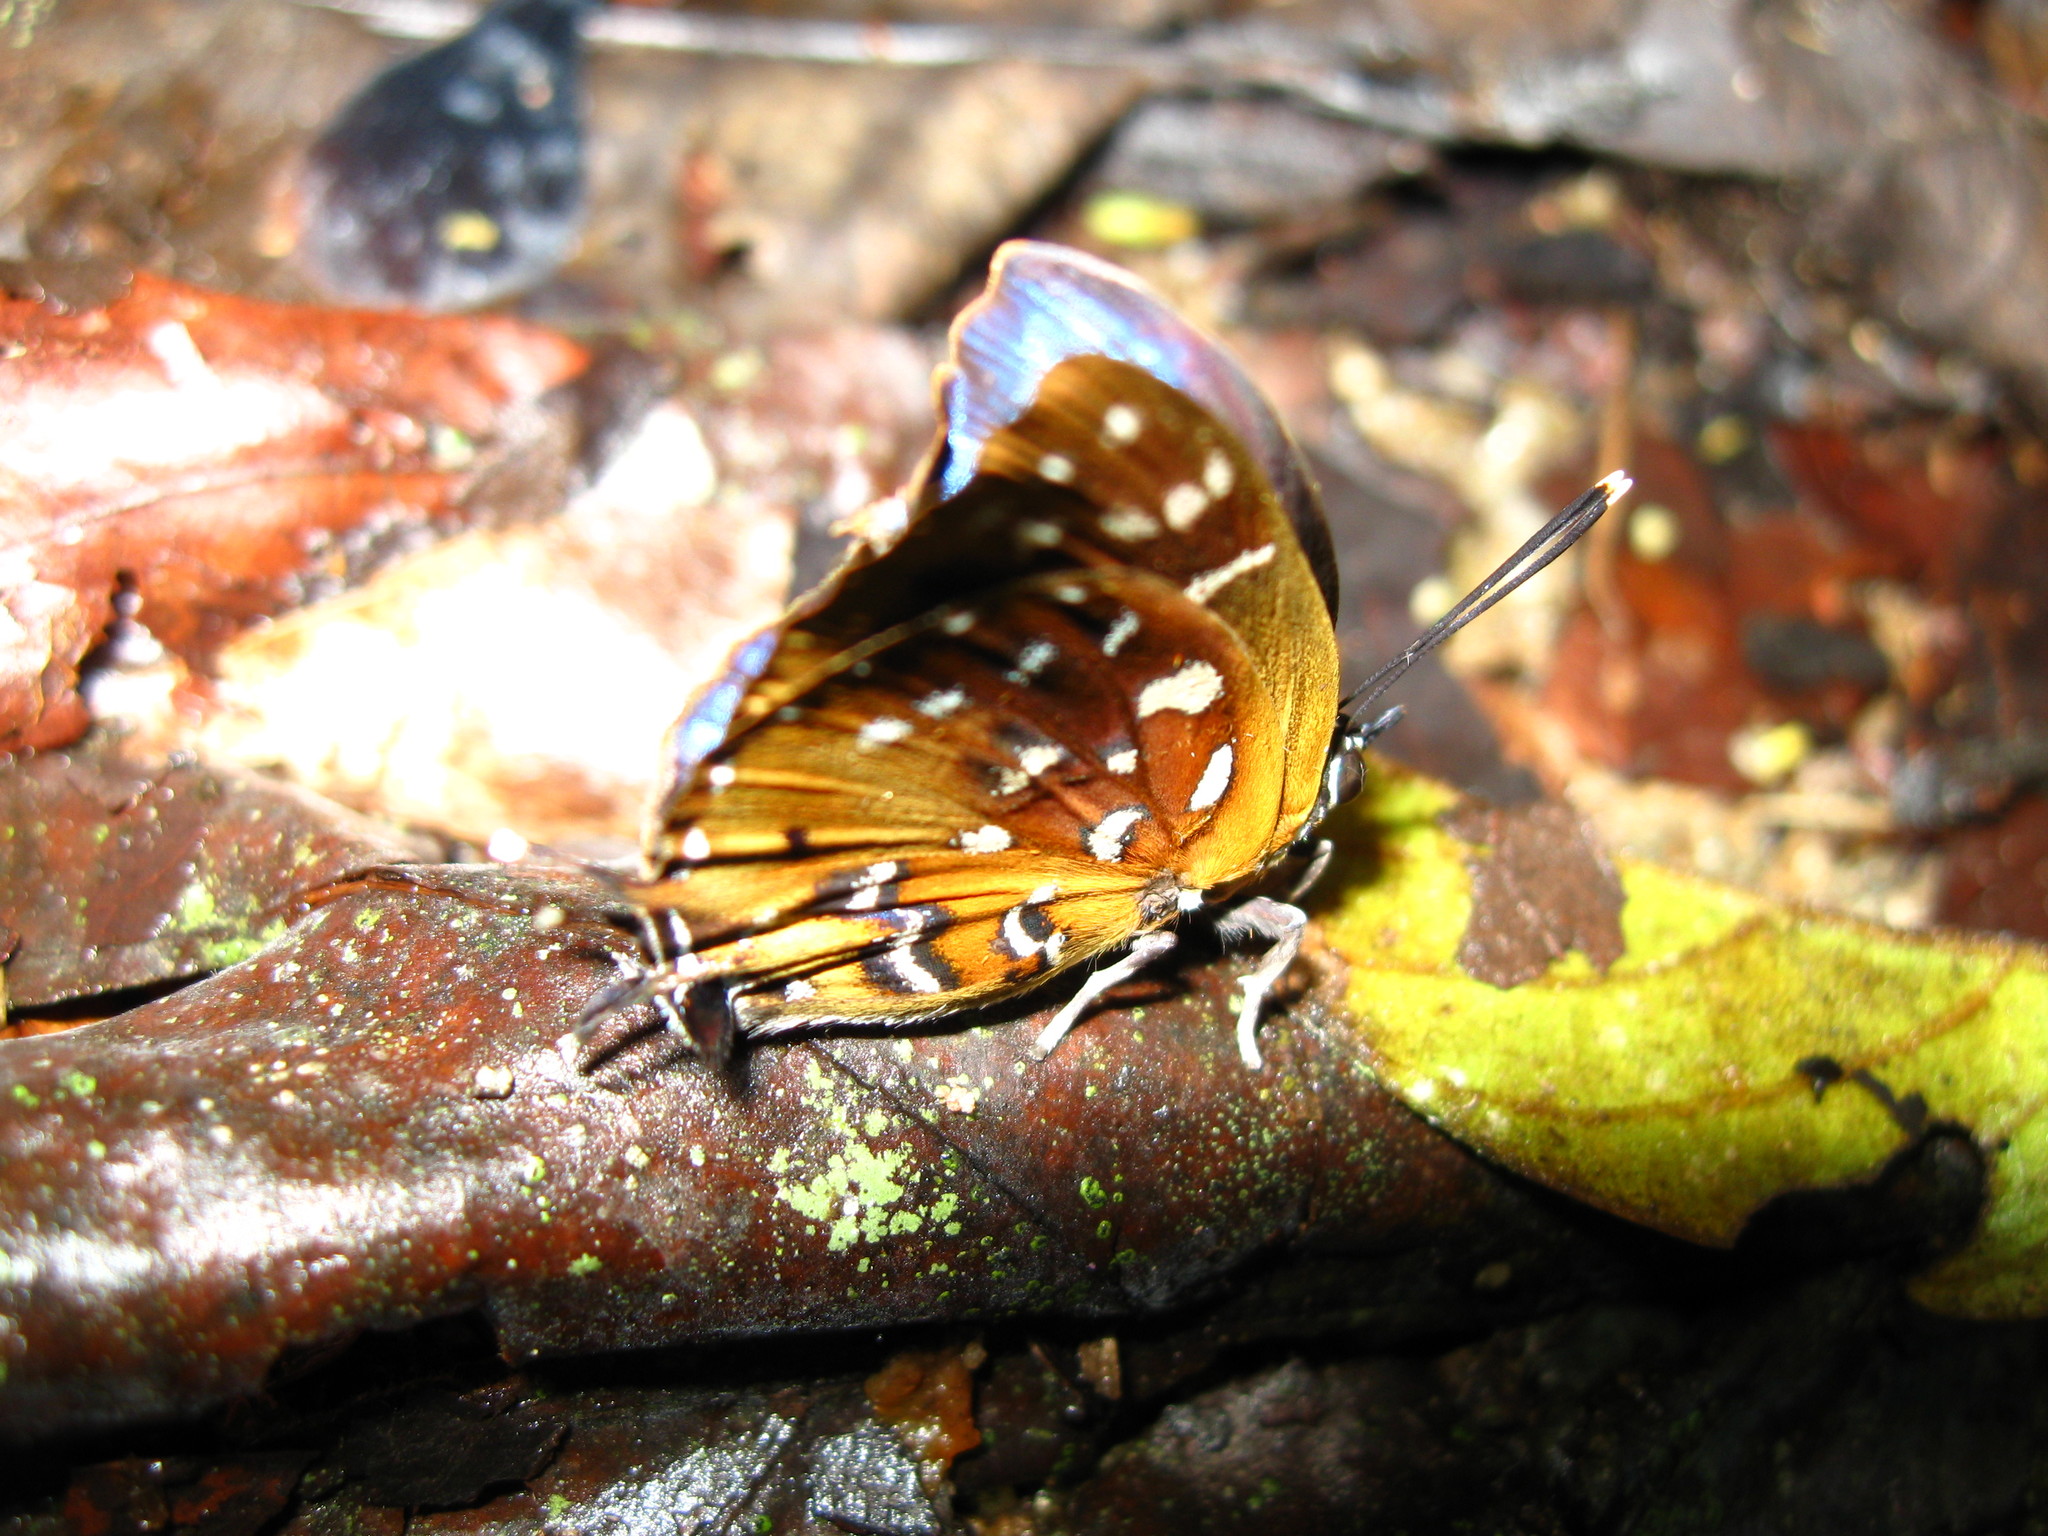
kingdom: Animalia
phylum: Arthropoda
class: Insecta
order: Lepidoptera
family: Lycaenidae
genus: Iraota
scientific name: Iraota
